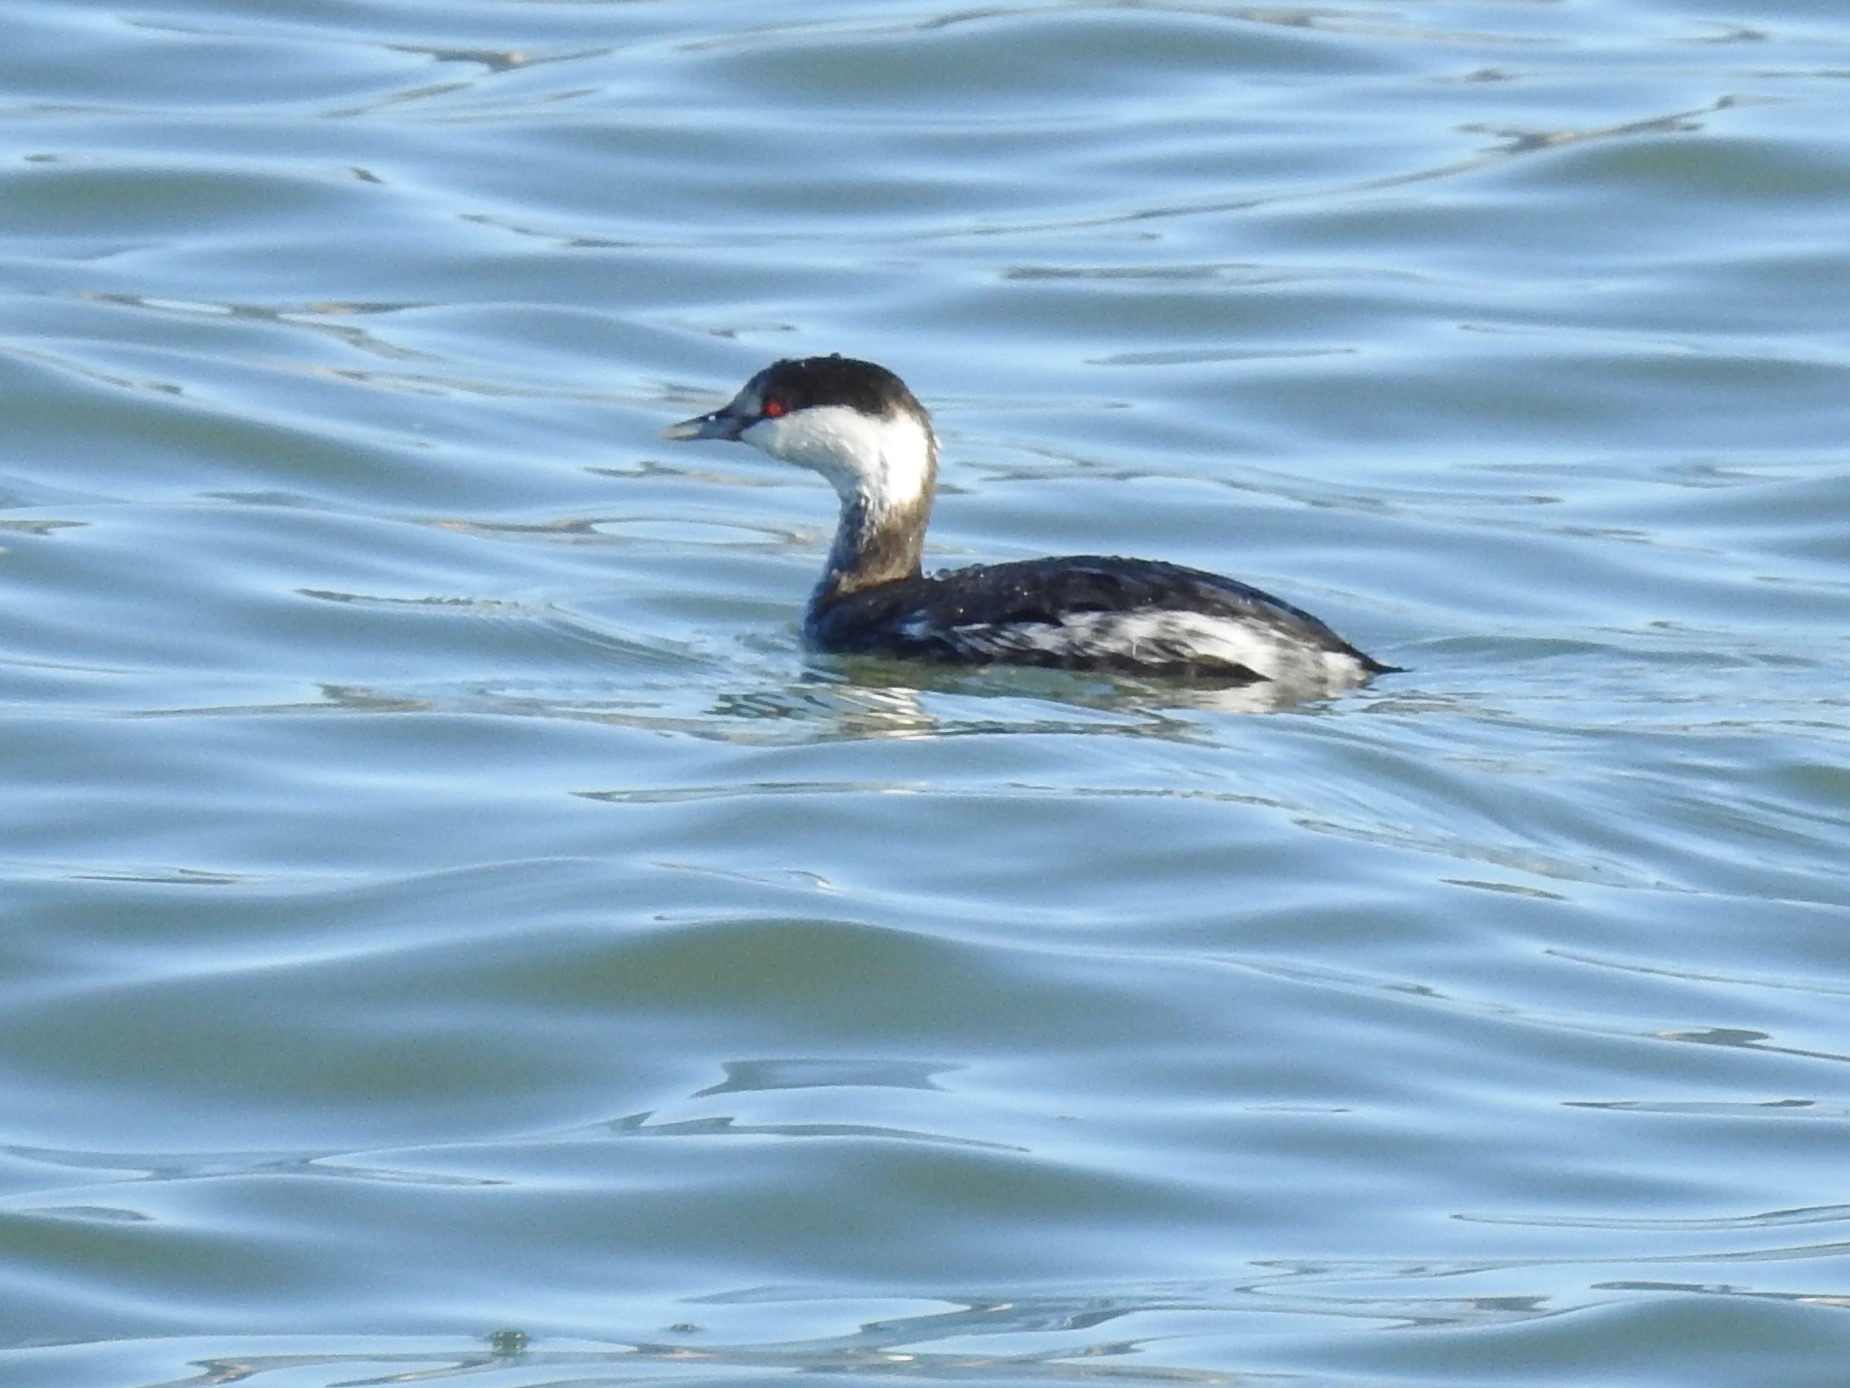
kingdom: Animalia
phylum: Chordata
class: Aves
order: Podicipediformes
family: Podicipedidae
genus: Podiceps
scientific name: Podiceps auritus
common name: Horned grebe
